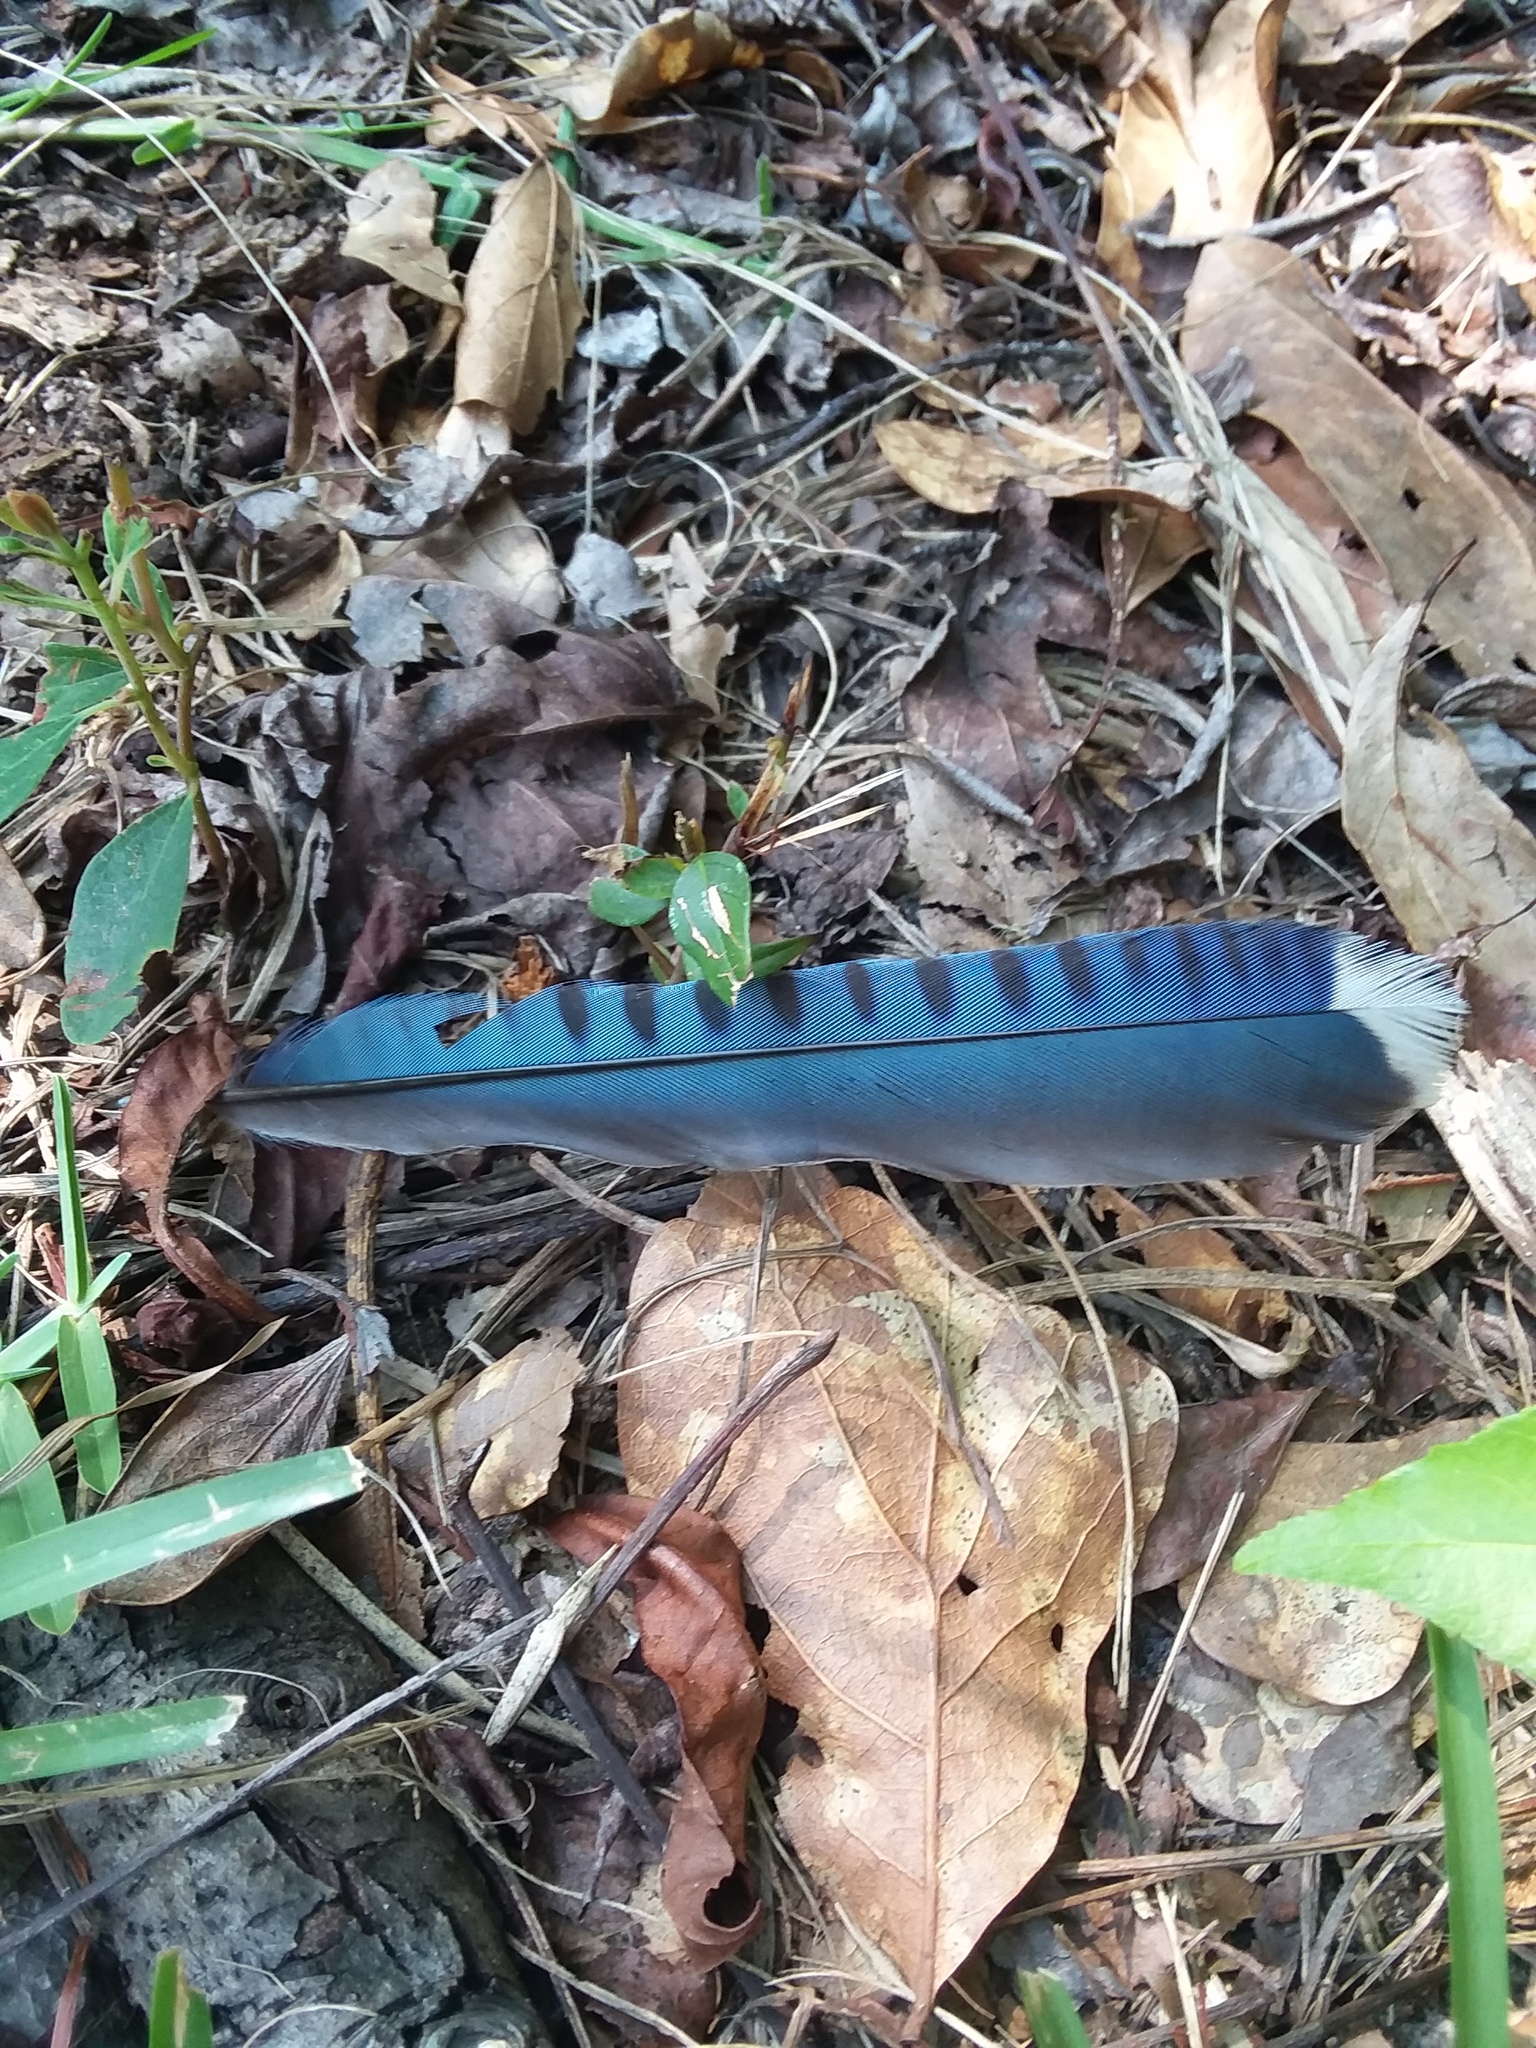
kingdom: Animalia
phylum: Chordata
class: Aves
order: Passeriformes
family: Corvidae
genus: Cyanocitta
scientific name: Cyanocitta cristata
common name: Blue jay
